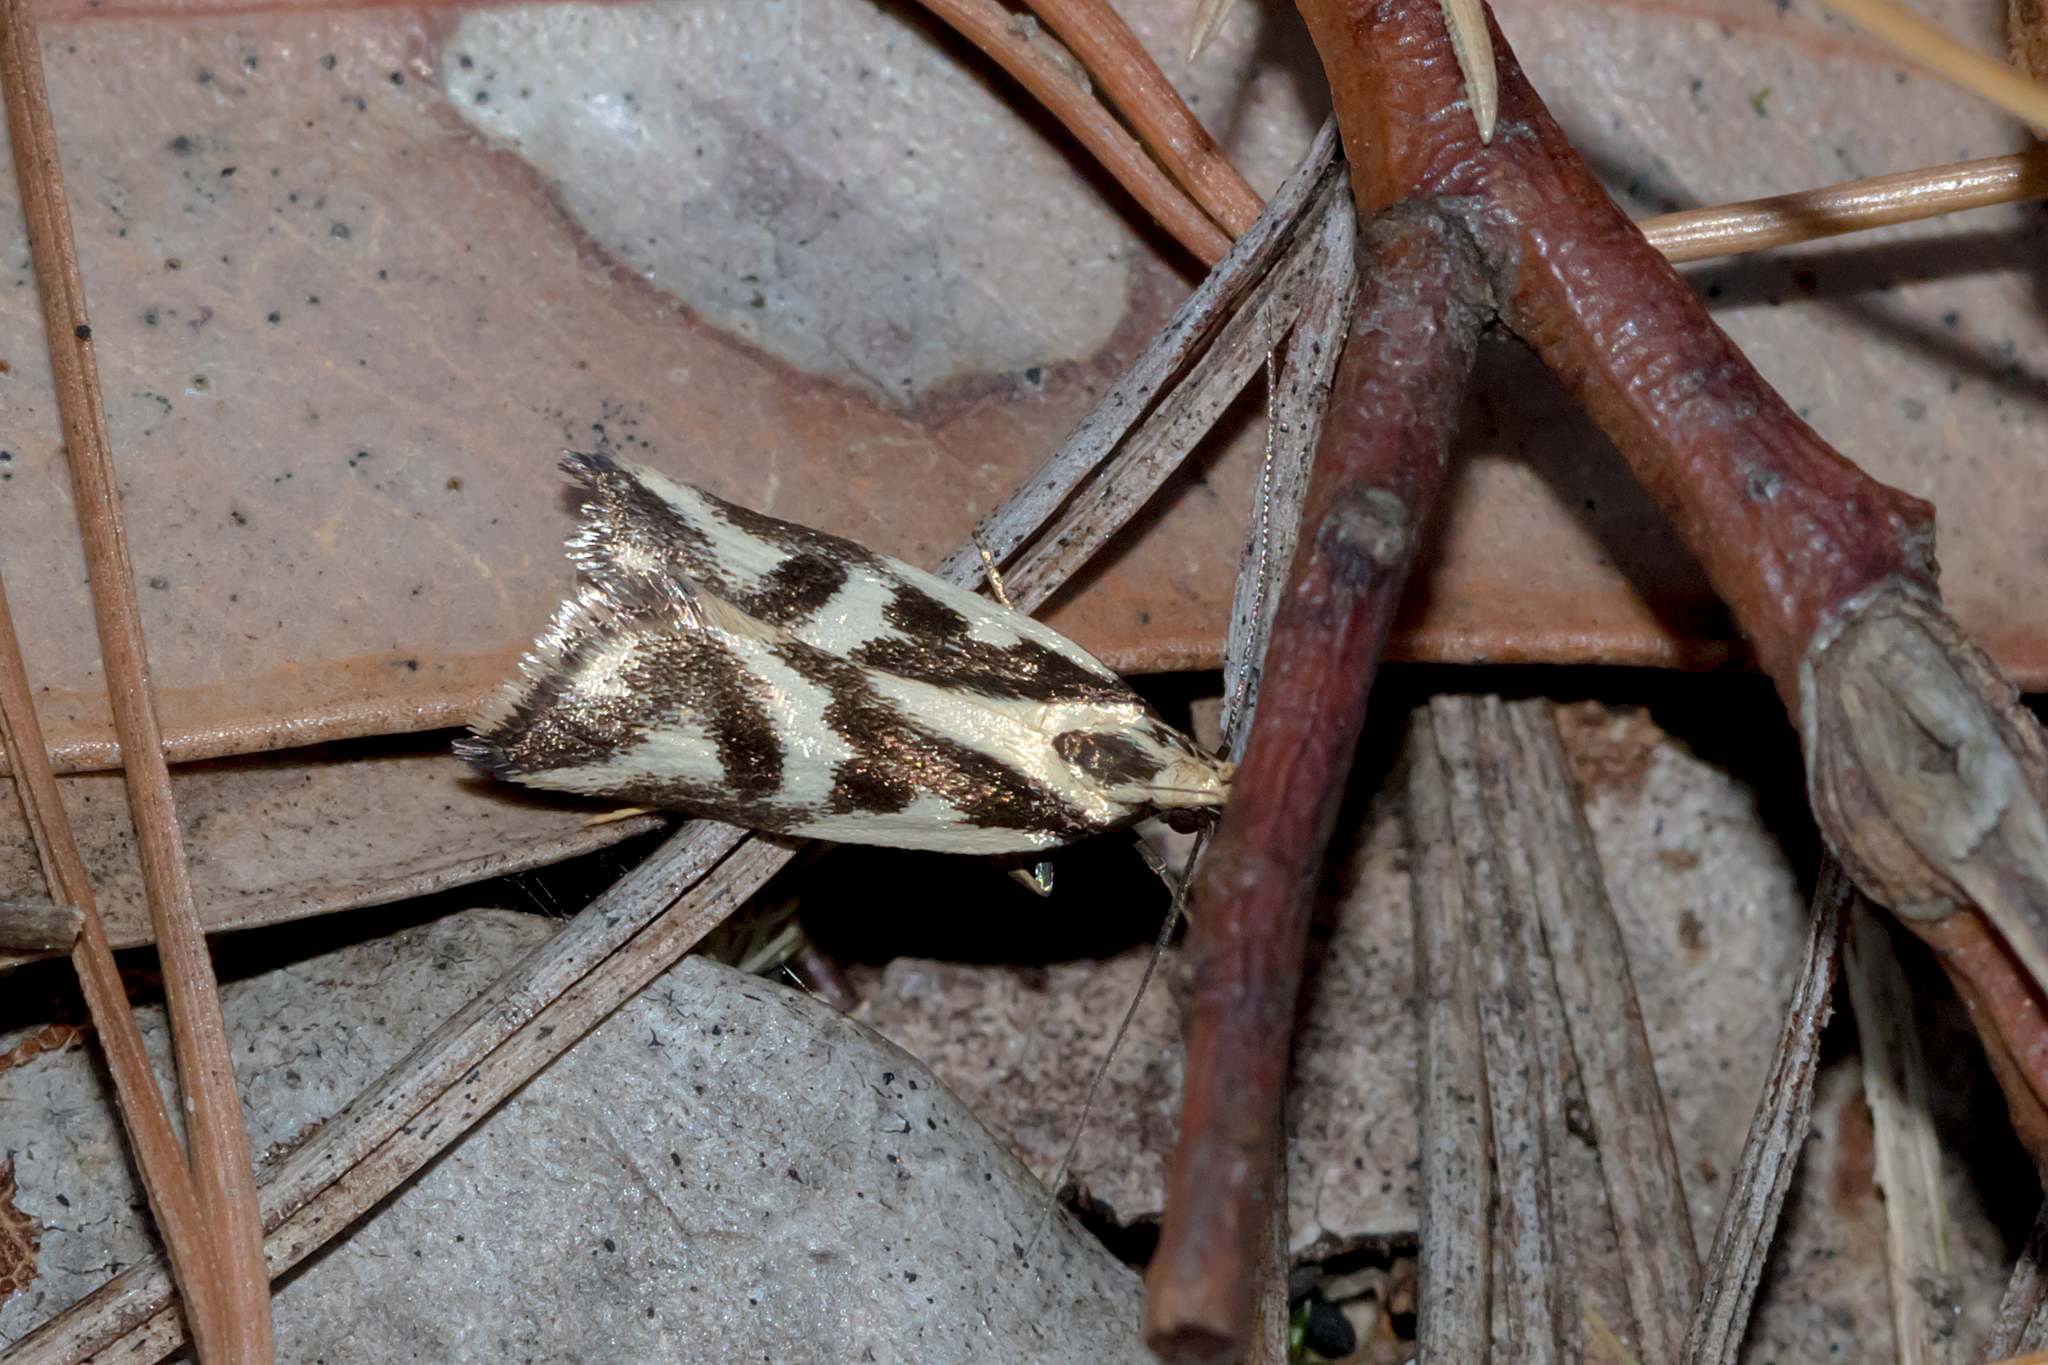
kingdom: Animalia
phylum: Arthropoda
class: Insecta
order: Lepidoptera
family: Oecophoridae
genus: Epithymema
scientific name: Epithymema incomposita
